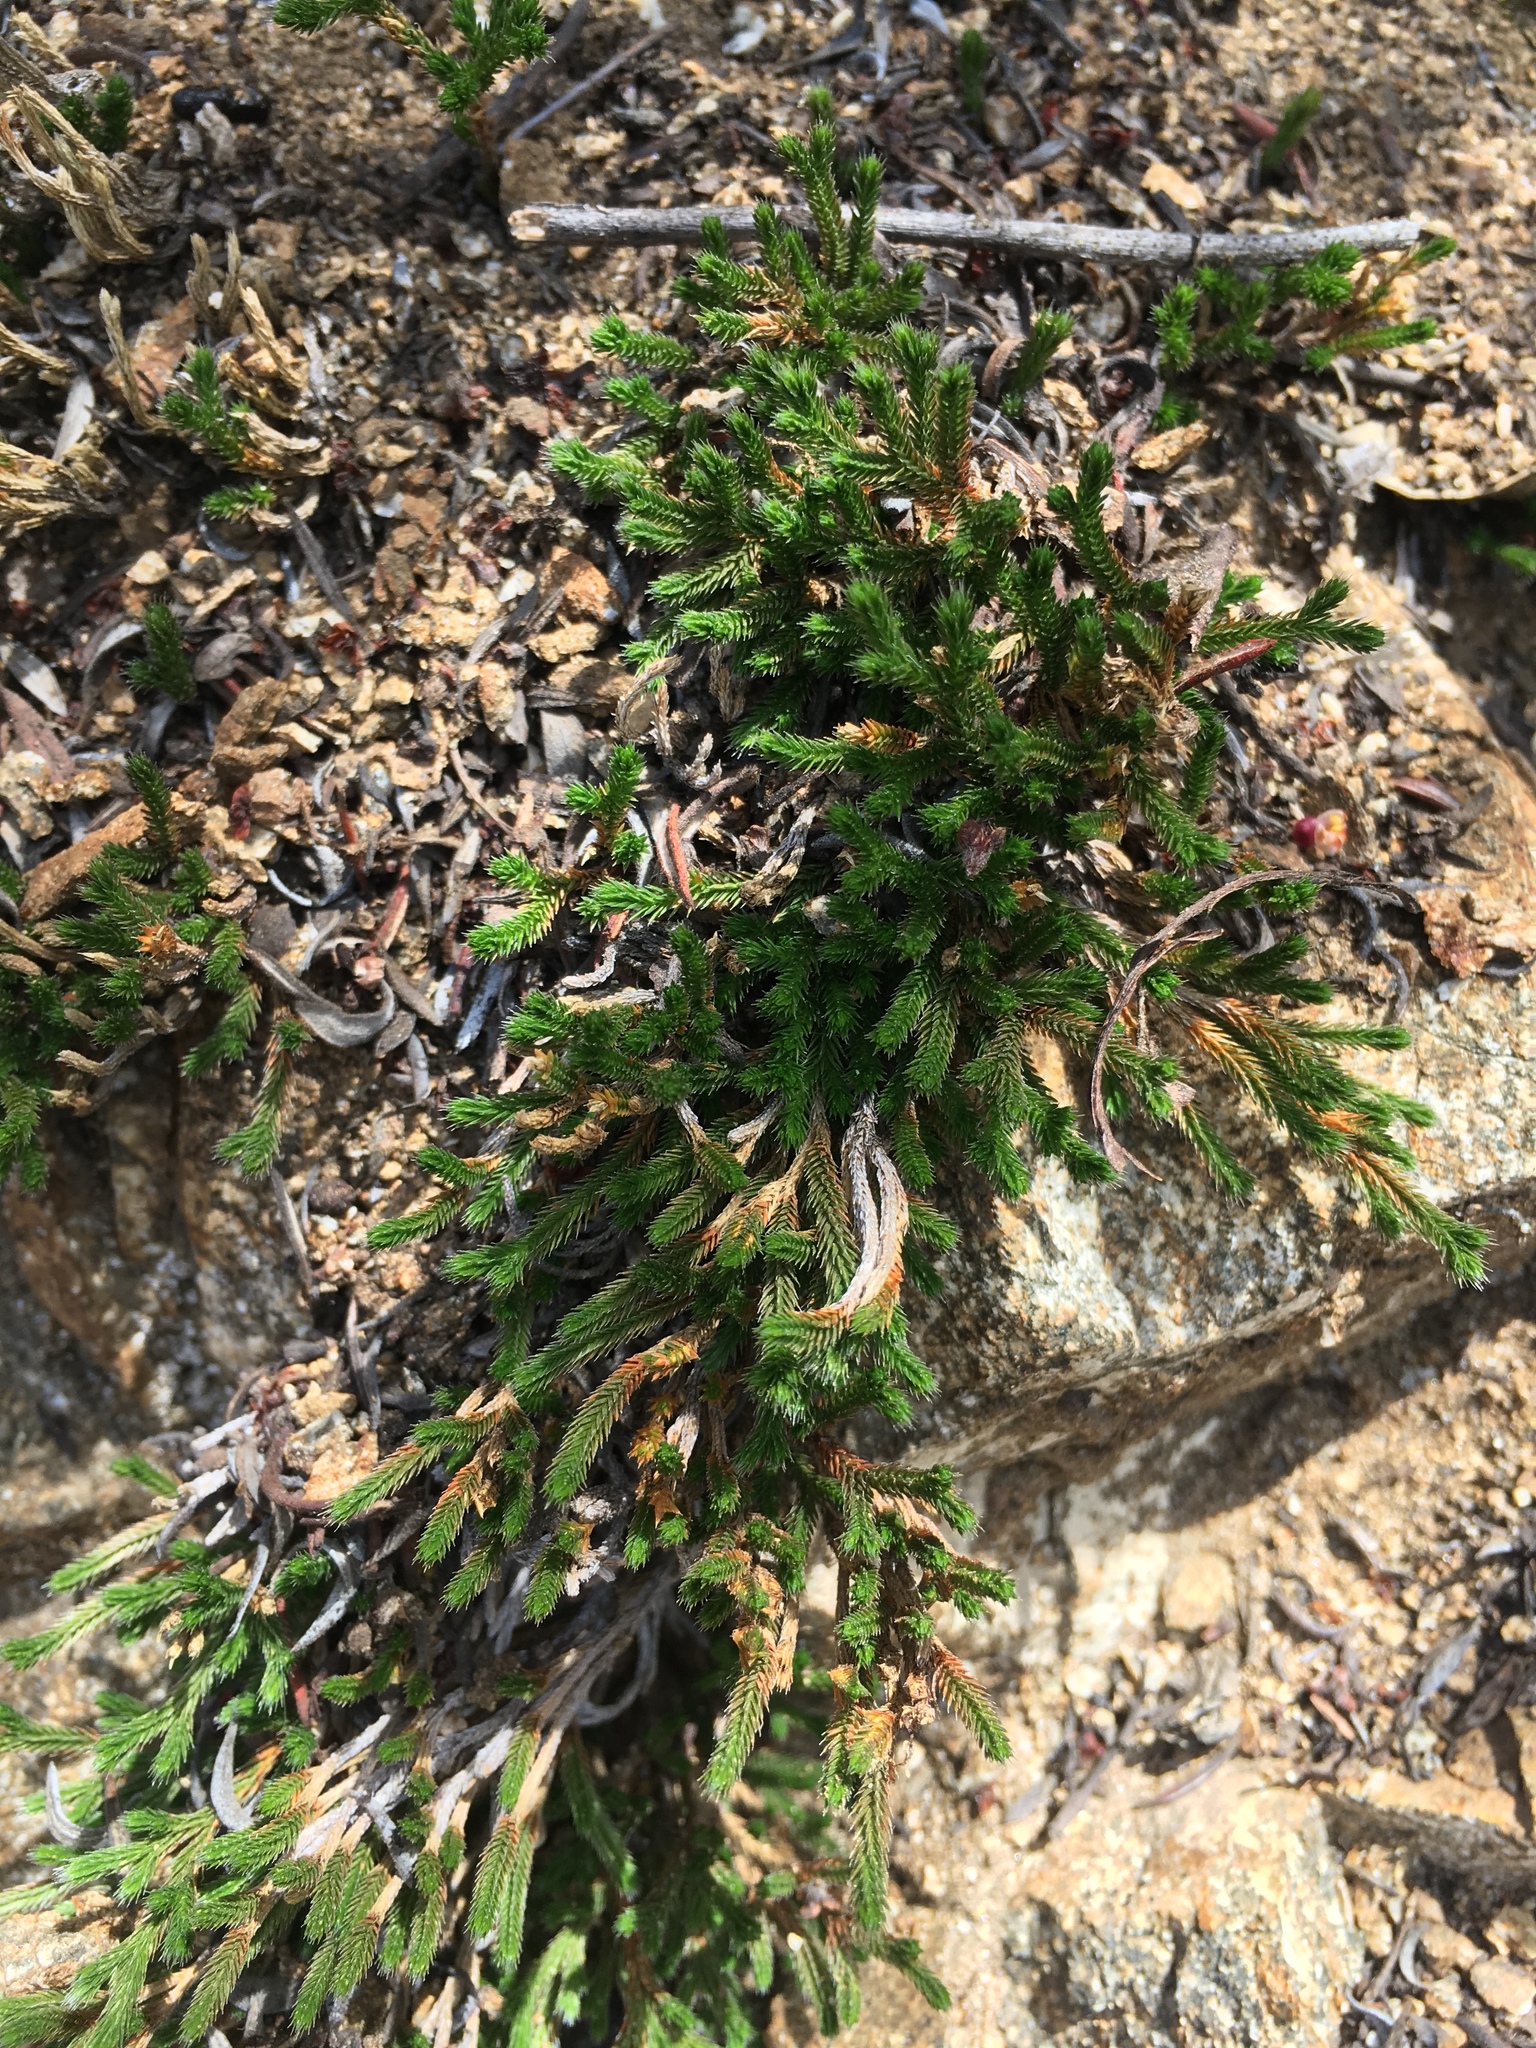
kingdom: Plantae
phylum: Tracheophyta
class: Lycopodiopsida
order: Selaginellales
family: Selaginellaceae
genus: Selaginella
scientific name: Selaginella bigelovii
